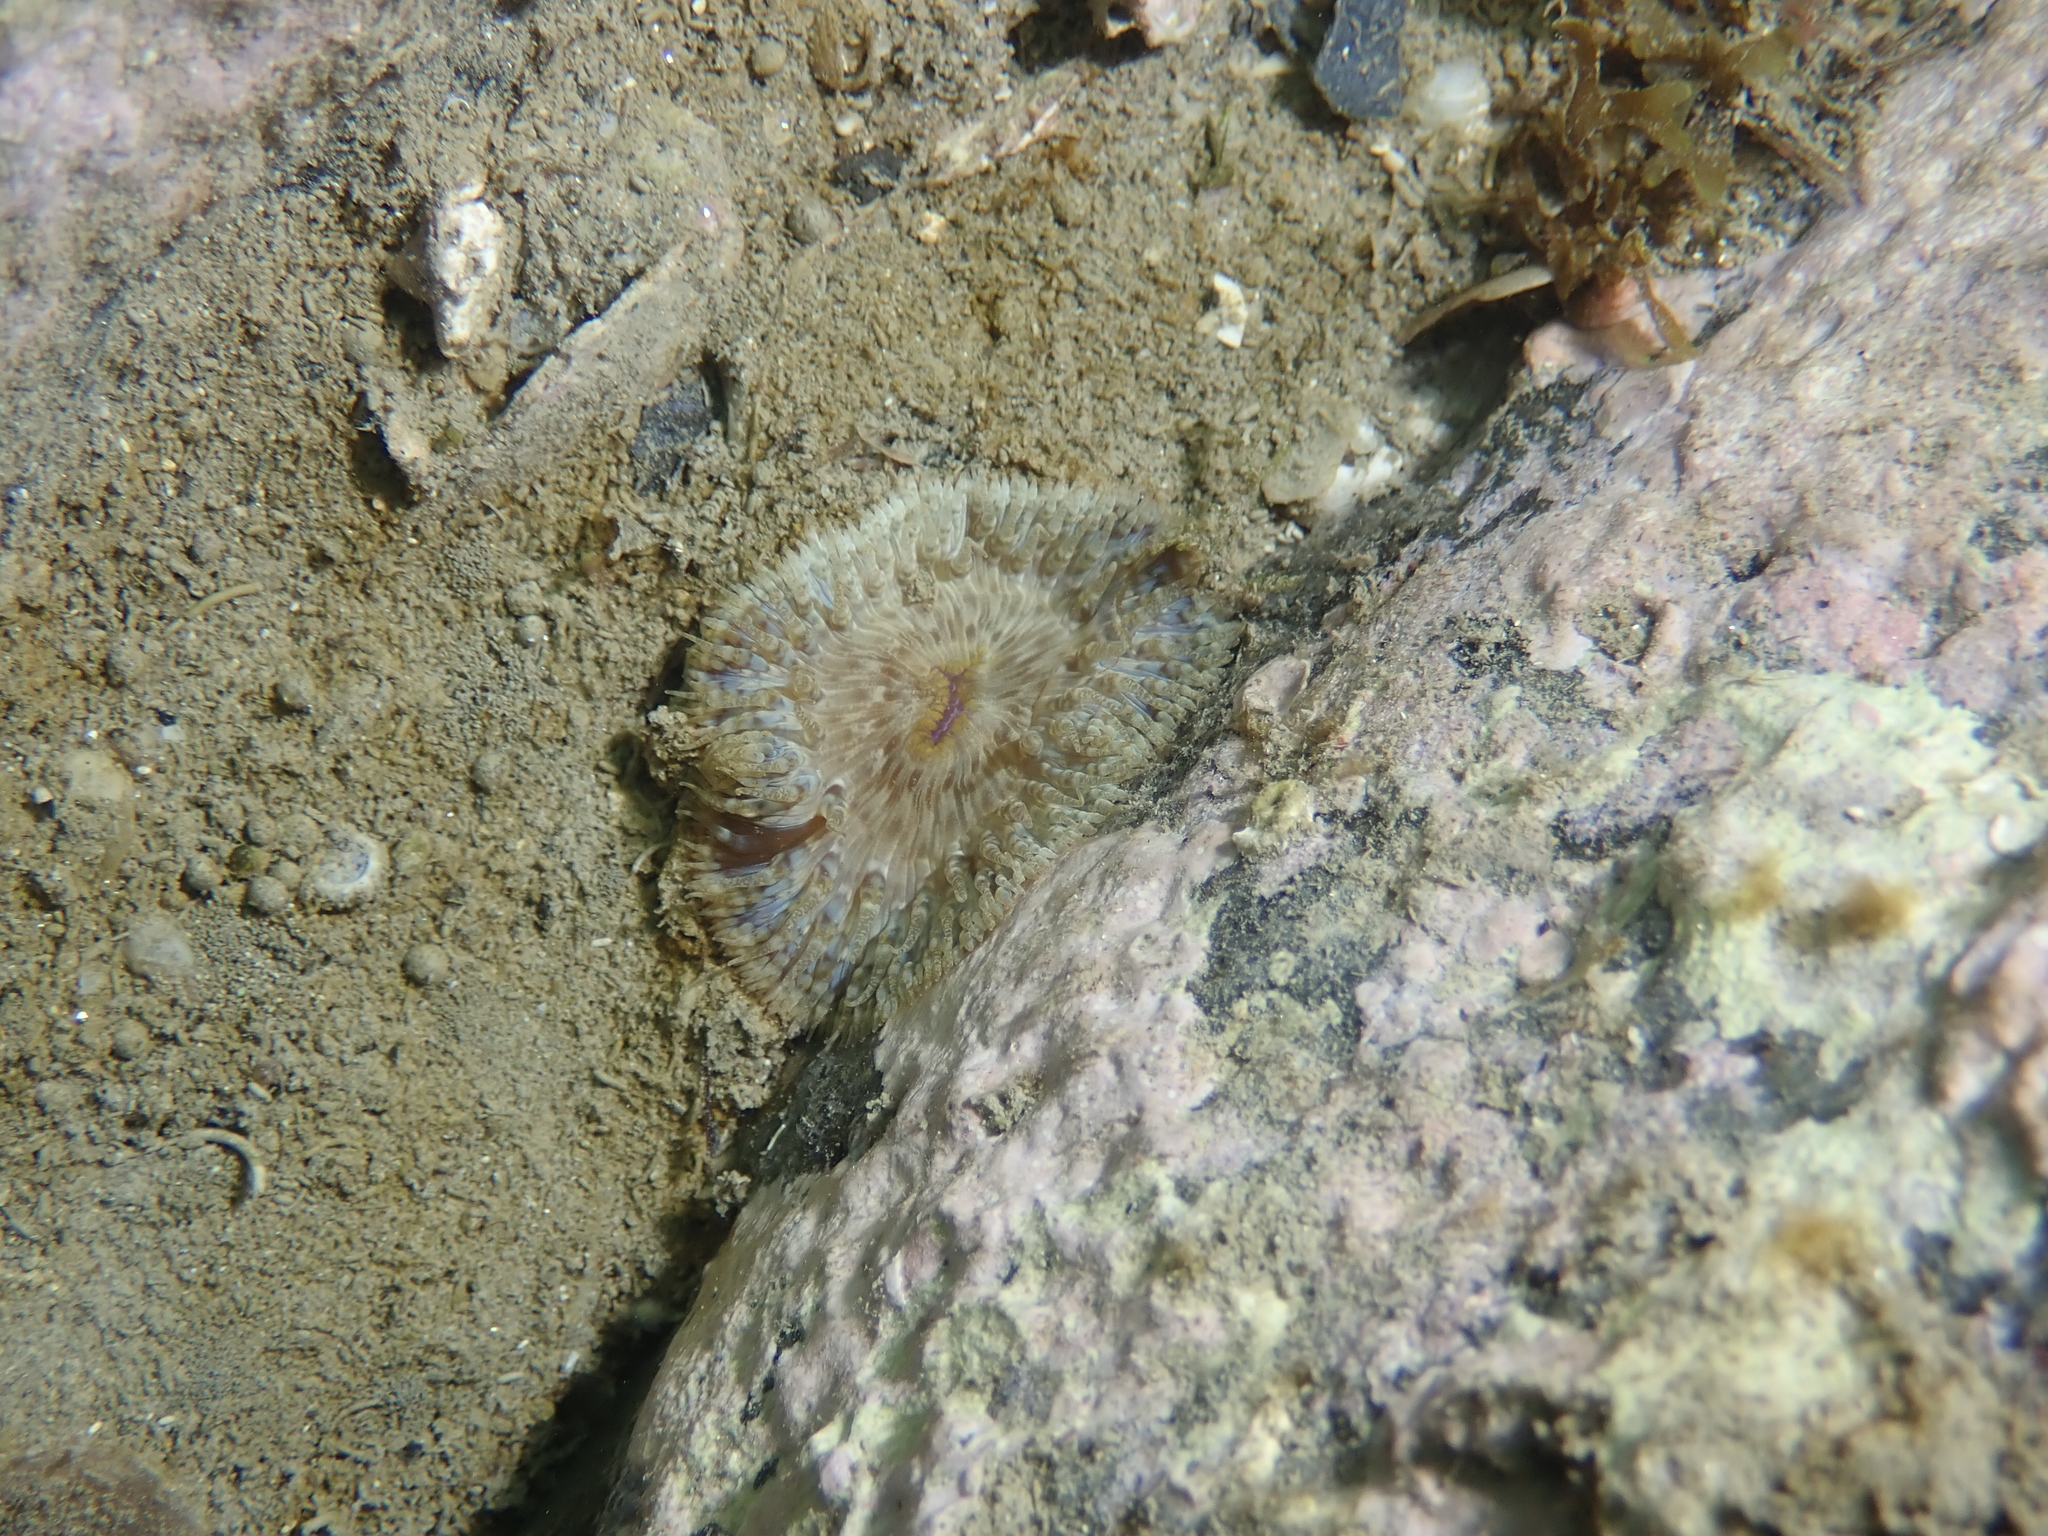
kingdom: Animalia
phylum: Cnidaria
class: Anthozoa
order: Actiniaria
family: Sagartiidae
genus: Cereus
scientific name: Cereus pedunculatus
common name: Daisy anemone
